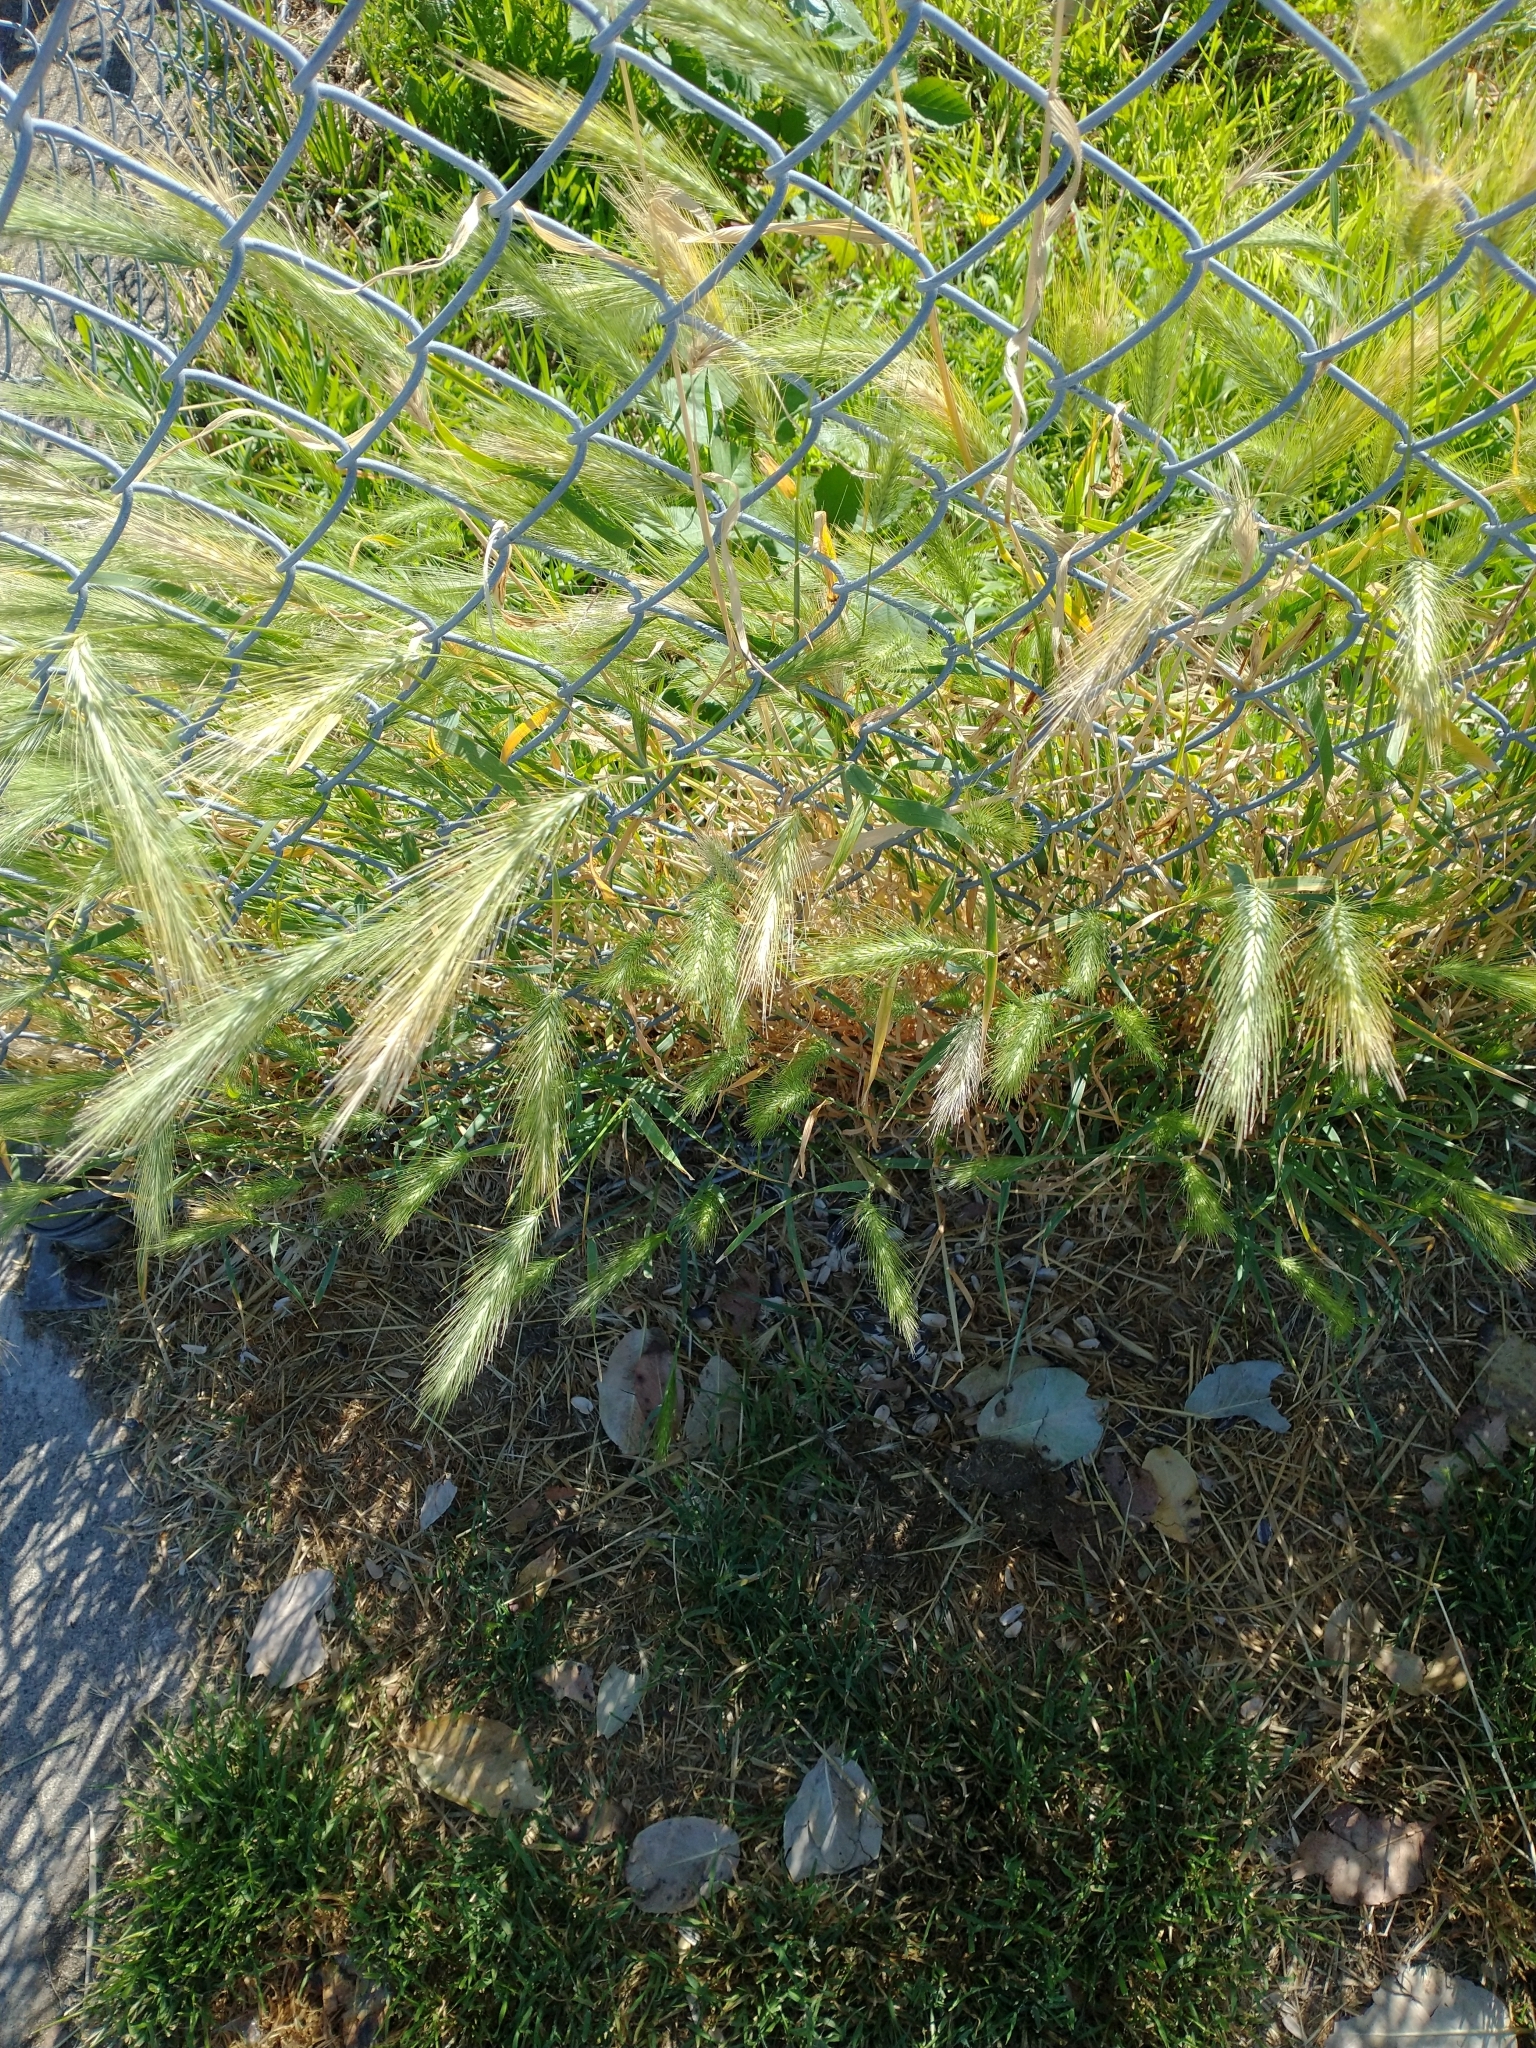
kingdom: Plantae
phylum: Tracheophyta
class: Liliopsida
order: Poales
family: Poaceae
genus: Hordeum
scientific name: Hordeum murinum
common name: Wall barley
